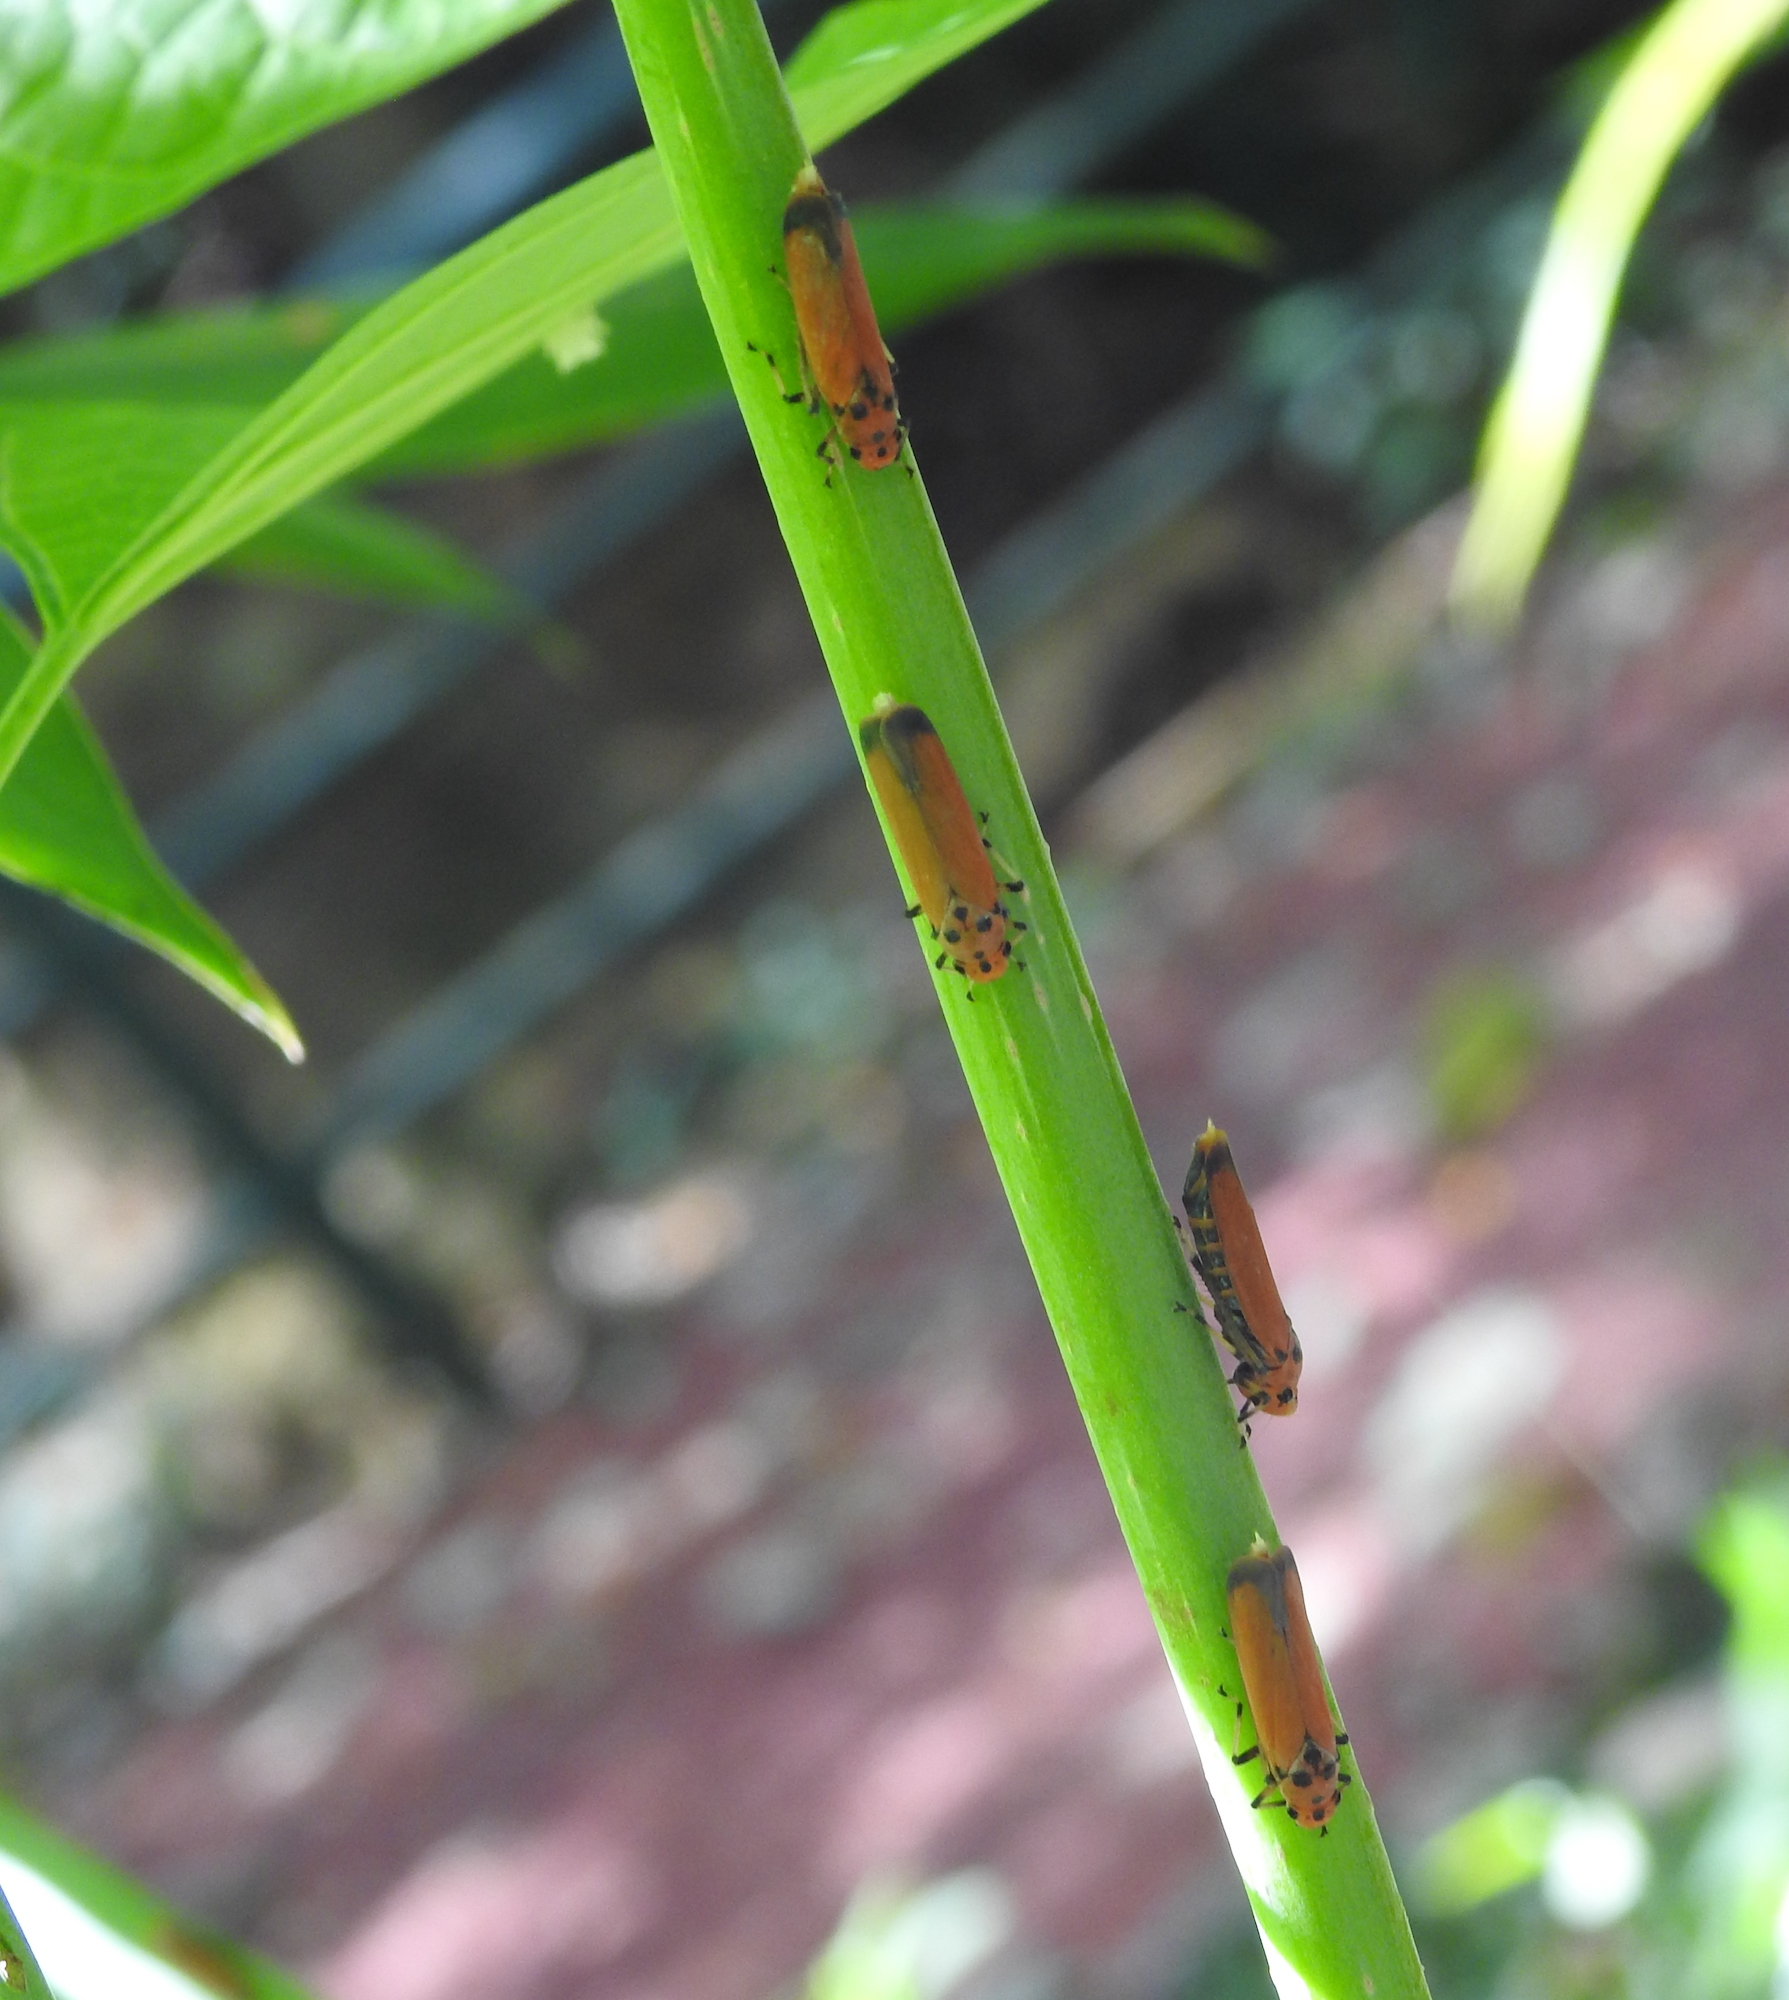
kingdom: Animalia
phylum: Arthropoda
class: Insecta
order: Hemiptera
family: Cicadellidae
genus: Bothrogonia
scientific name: Bothrogonia addita
